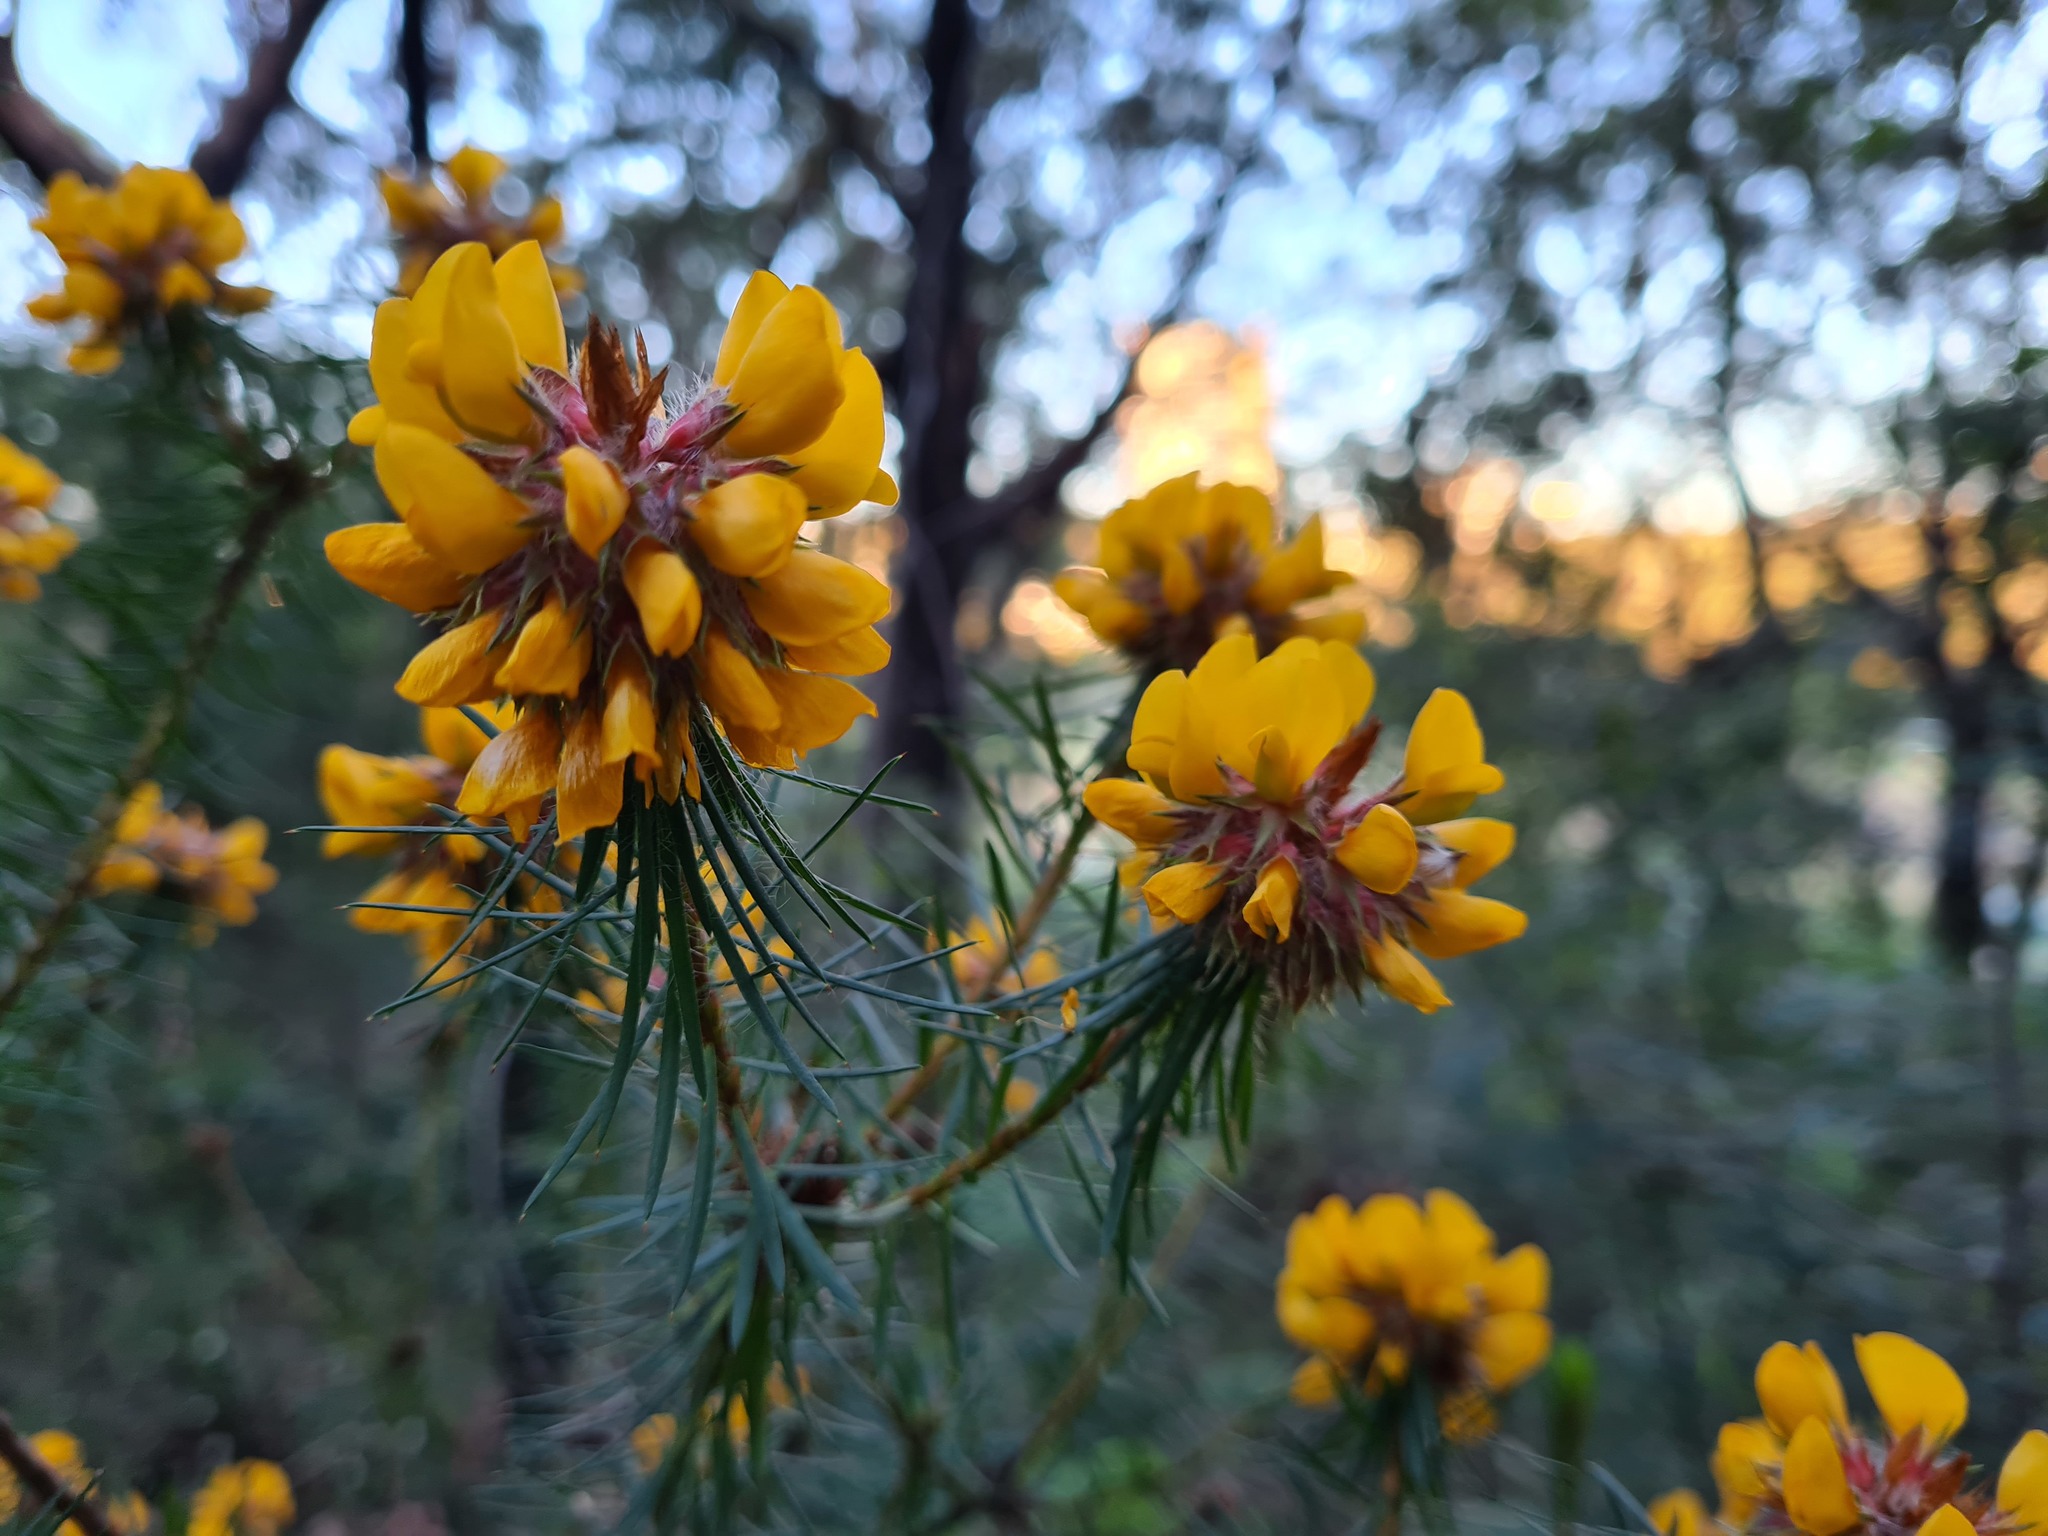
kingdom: Plantae
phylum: Tracheophyta
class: Magnoliopsida
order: Fabales
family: Fabaceae
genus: Pultenaea
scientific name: Pultenaea stipularis
